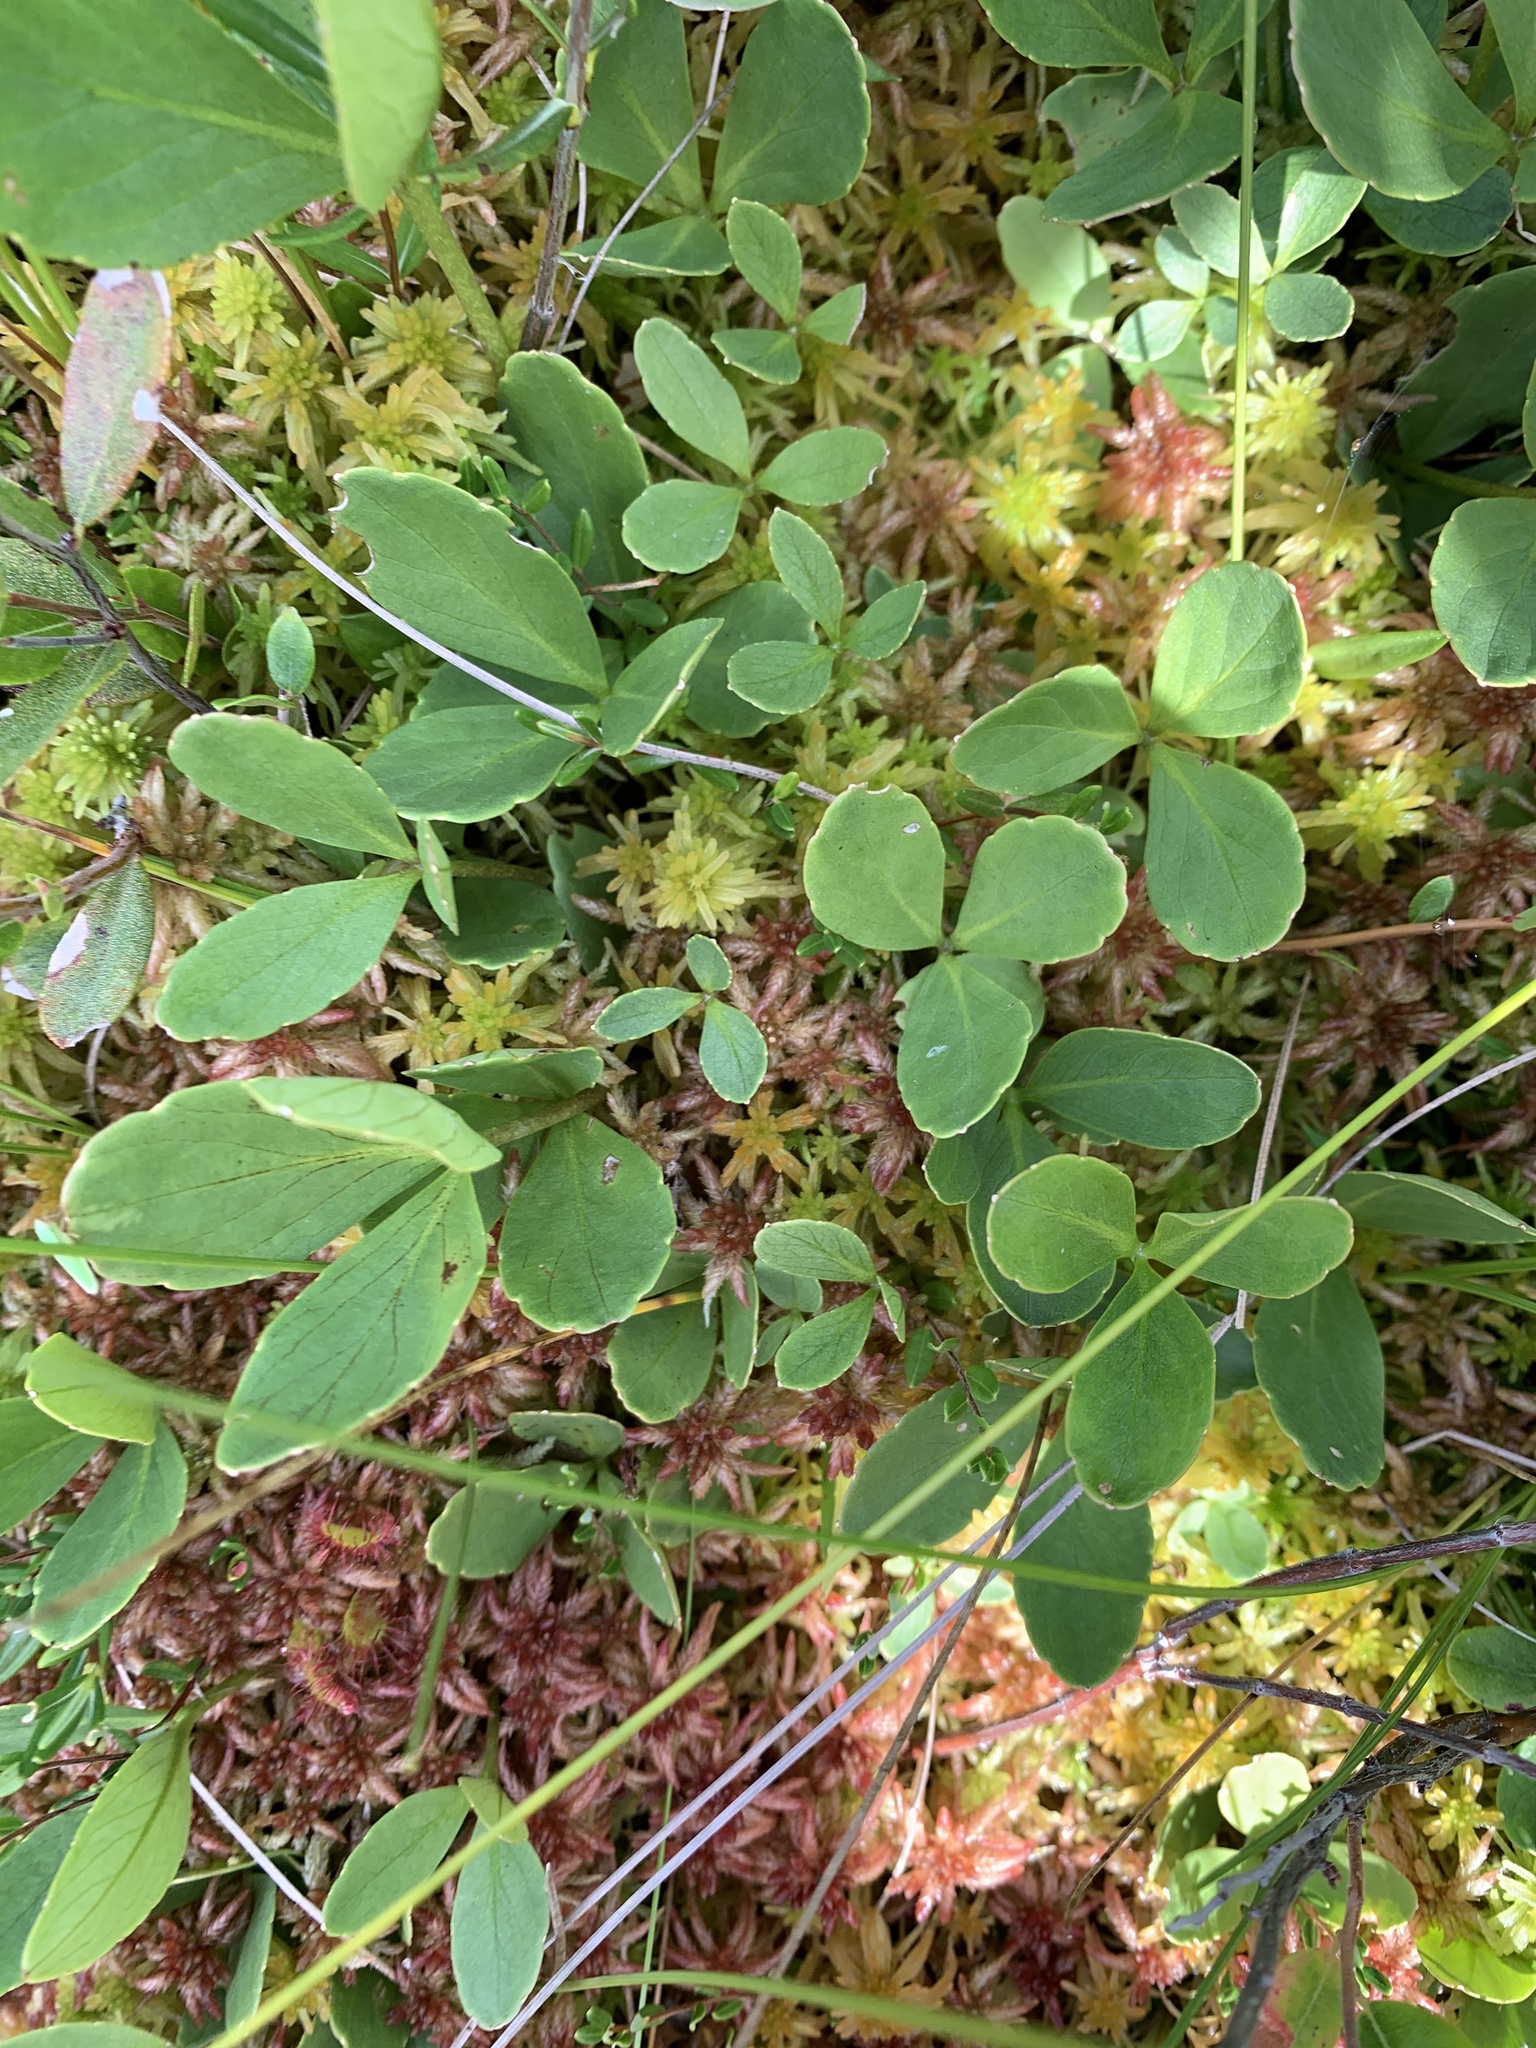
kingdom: Plantae
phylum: Tracheophyta
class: Magnoliopsida
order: Asterales
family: Menyanthaceae
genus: Menyanthes
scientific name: Menyanthes trifoliata
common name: Bogbean
